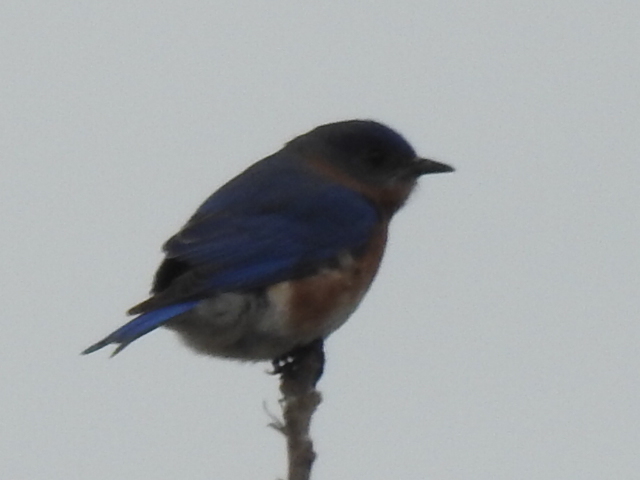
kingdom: Animalia
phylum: Chordata
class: Aves
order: Passeriformes
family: Turdidae
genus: Sialia
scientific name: Sialia sialis
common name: Eastern bluebird
